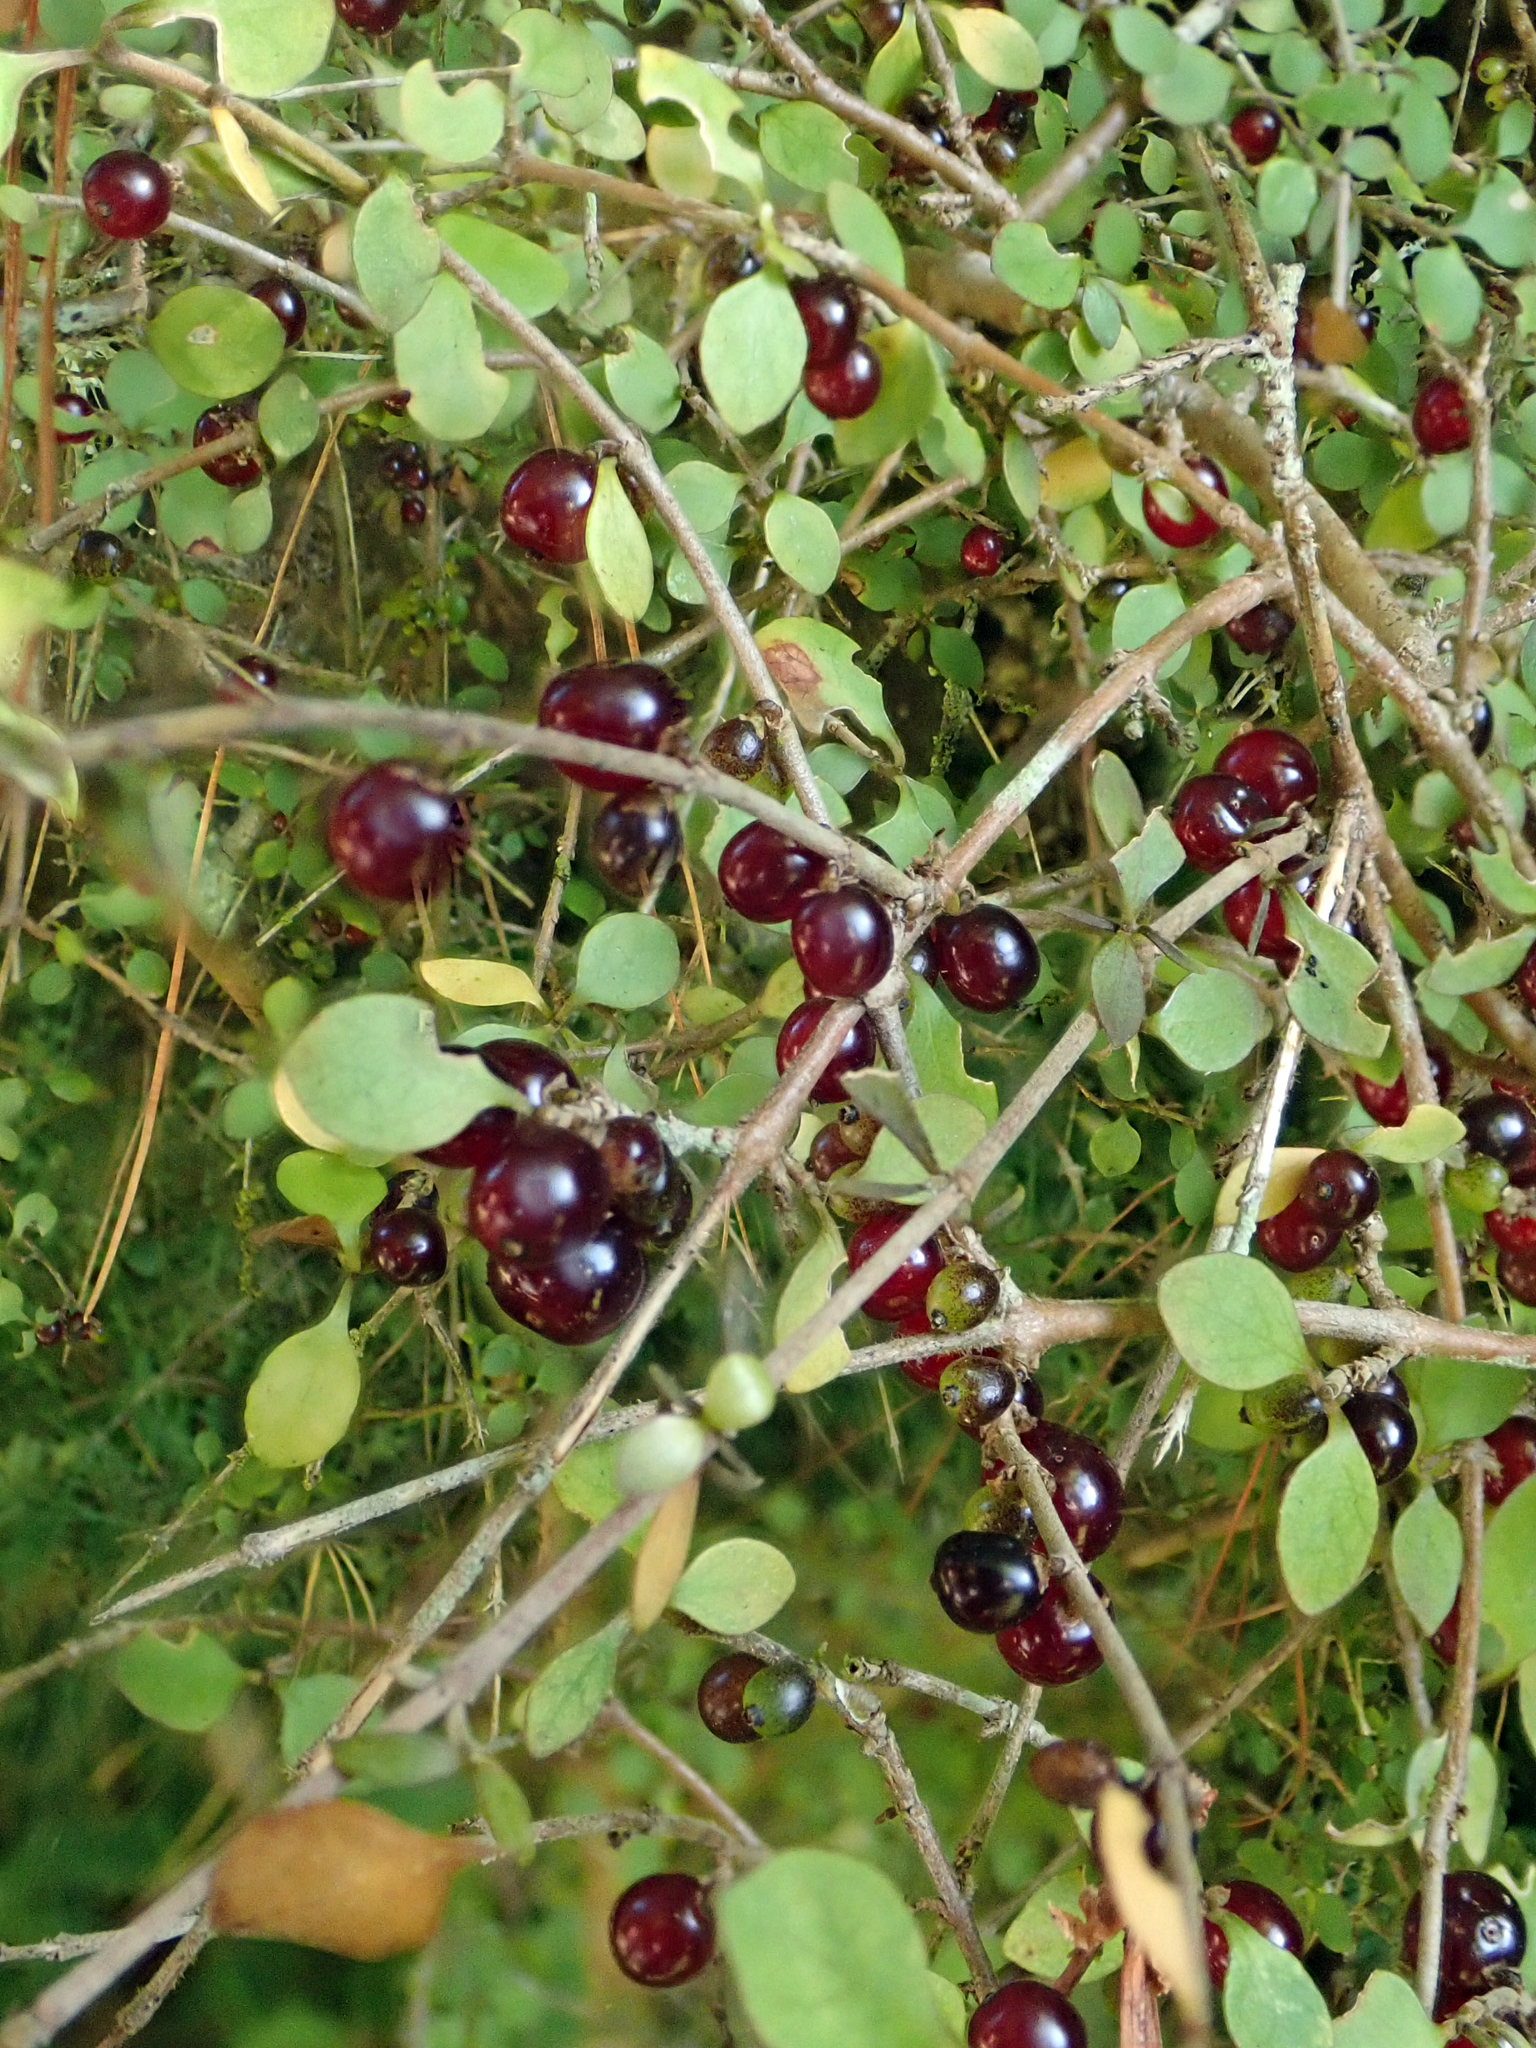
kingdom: Plantae
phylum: Tracheophyta
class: Magnoliopsida
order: Gentianales
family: Rubiaceae
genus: Coprosma
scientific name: Coprosma rhamnoides
